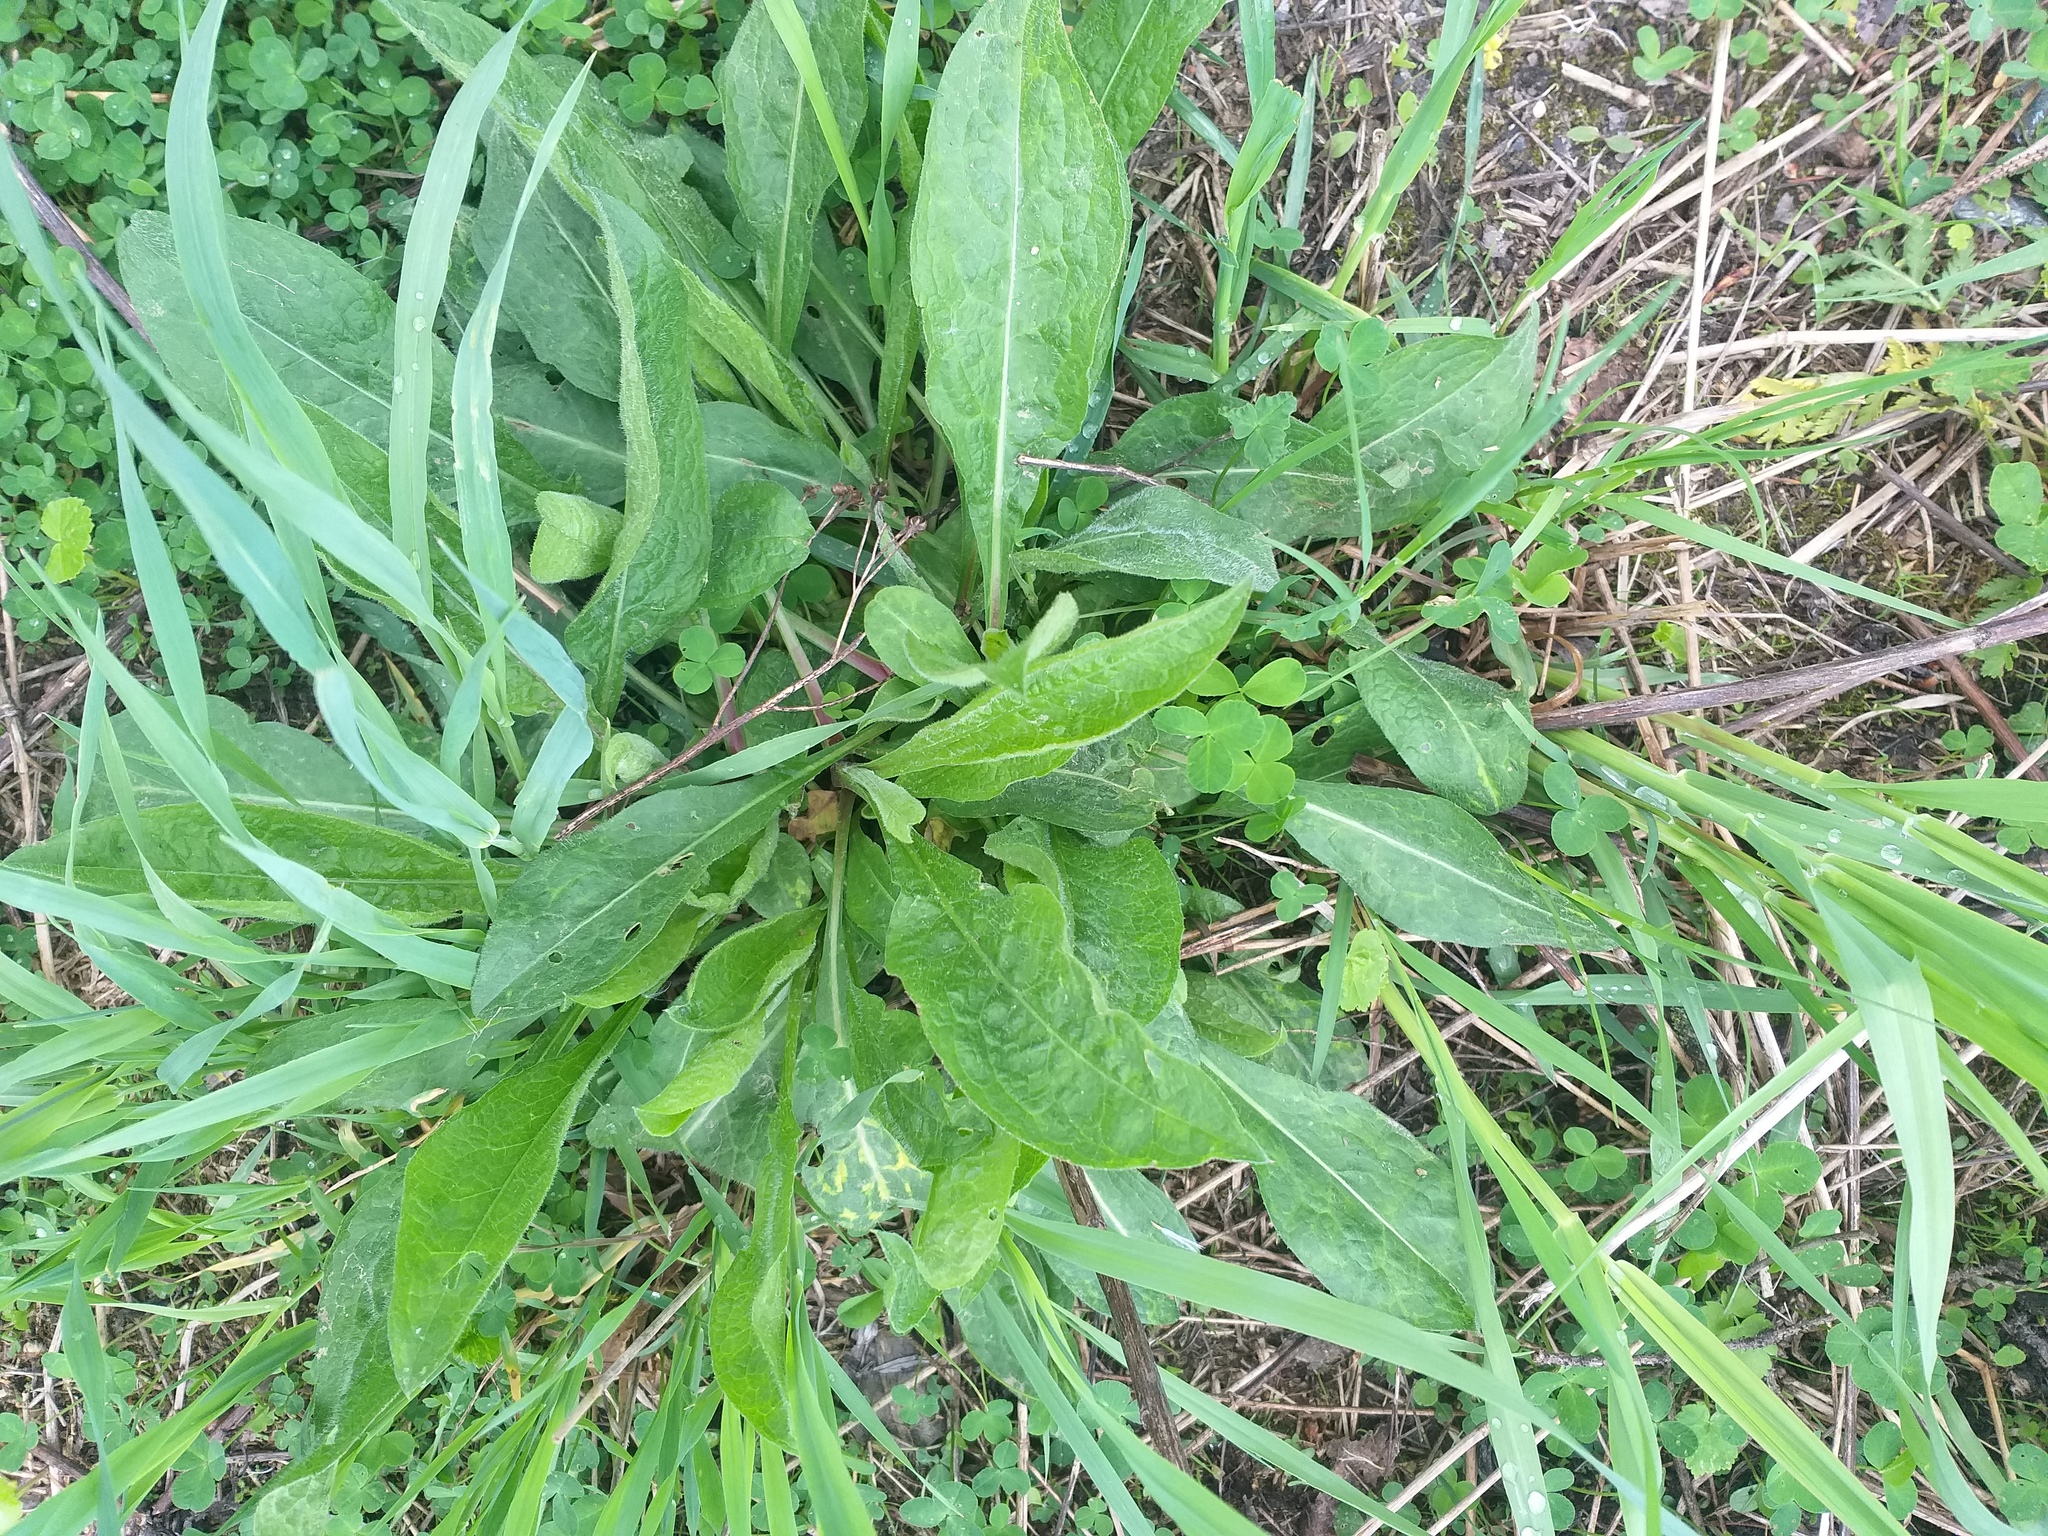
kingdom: Plantae
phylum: Tracheophyta
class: Magnoliopsida
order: Asterales
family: Asteraceae
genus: Centaurea
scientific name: Centaurea jacea
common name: Brown knapweed
